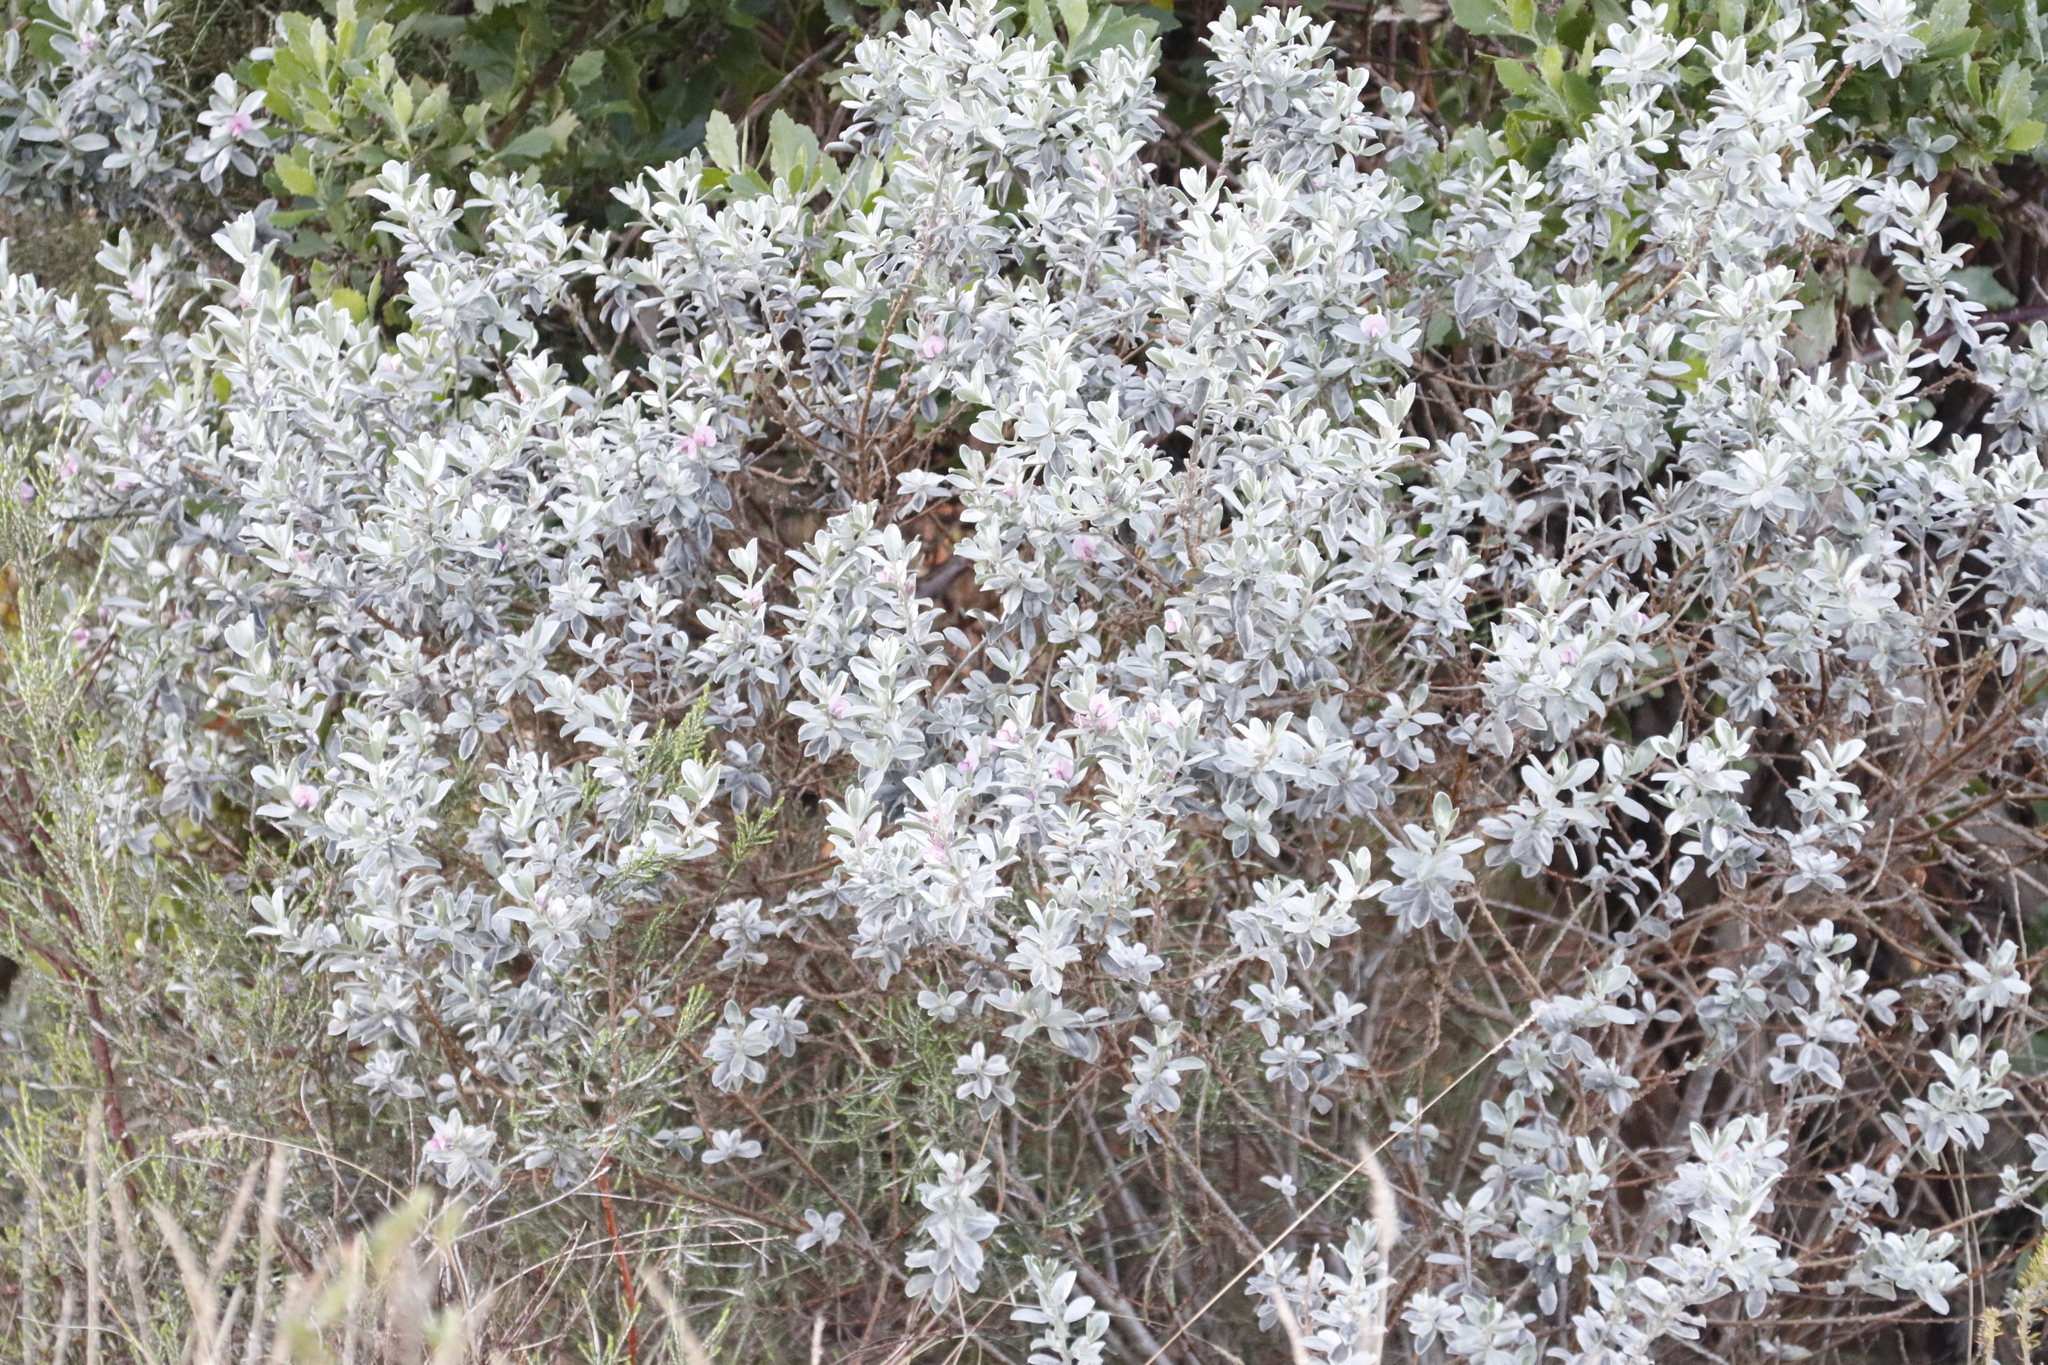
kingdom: Plantae
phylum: Tracheophyta
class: Magnoliopsida
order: Fabales
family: Fabaceae
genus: Podalyria
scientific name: Podalyria sericea
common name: Silver podalyria
